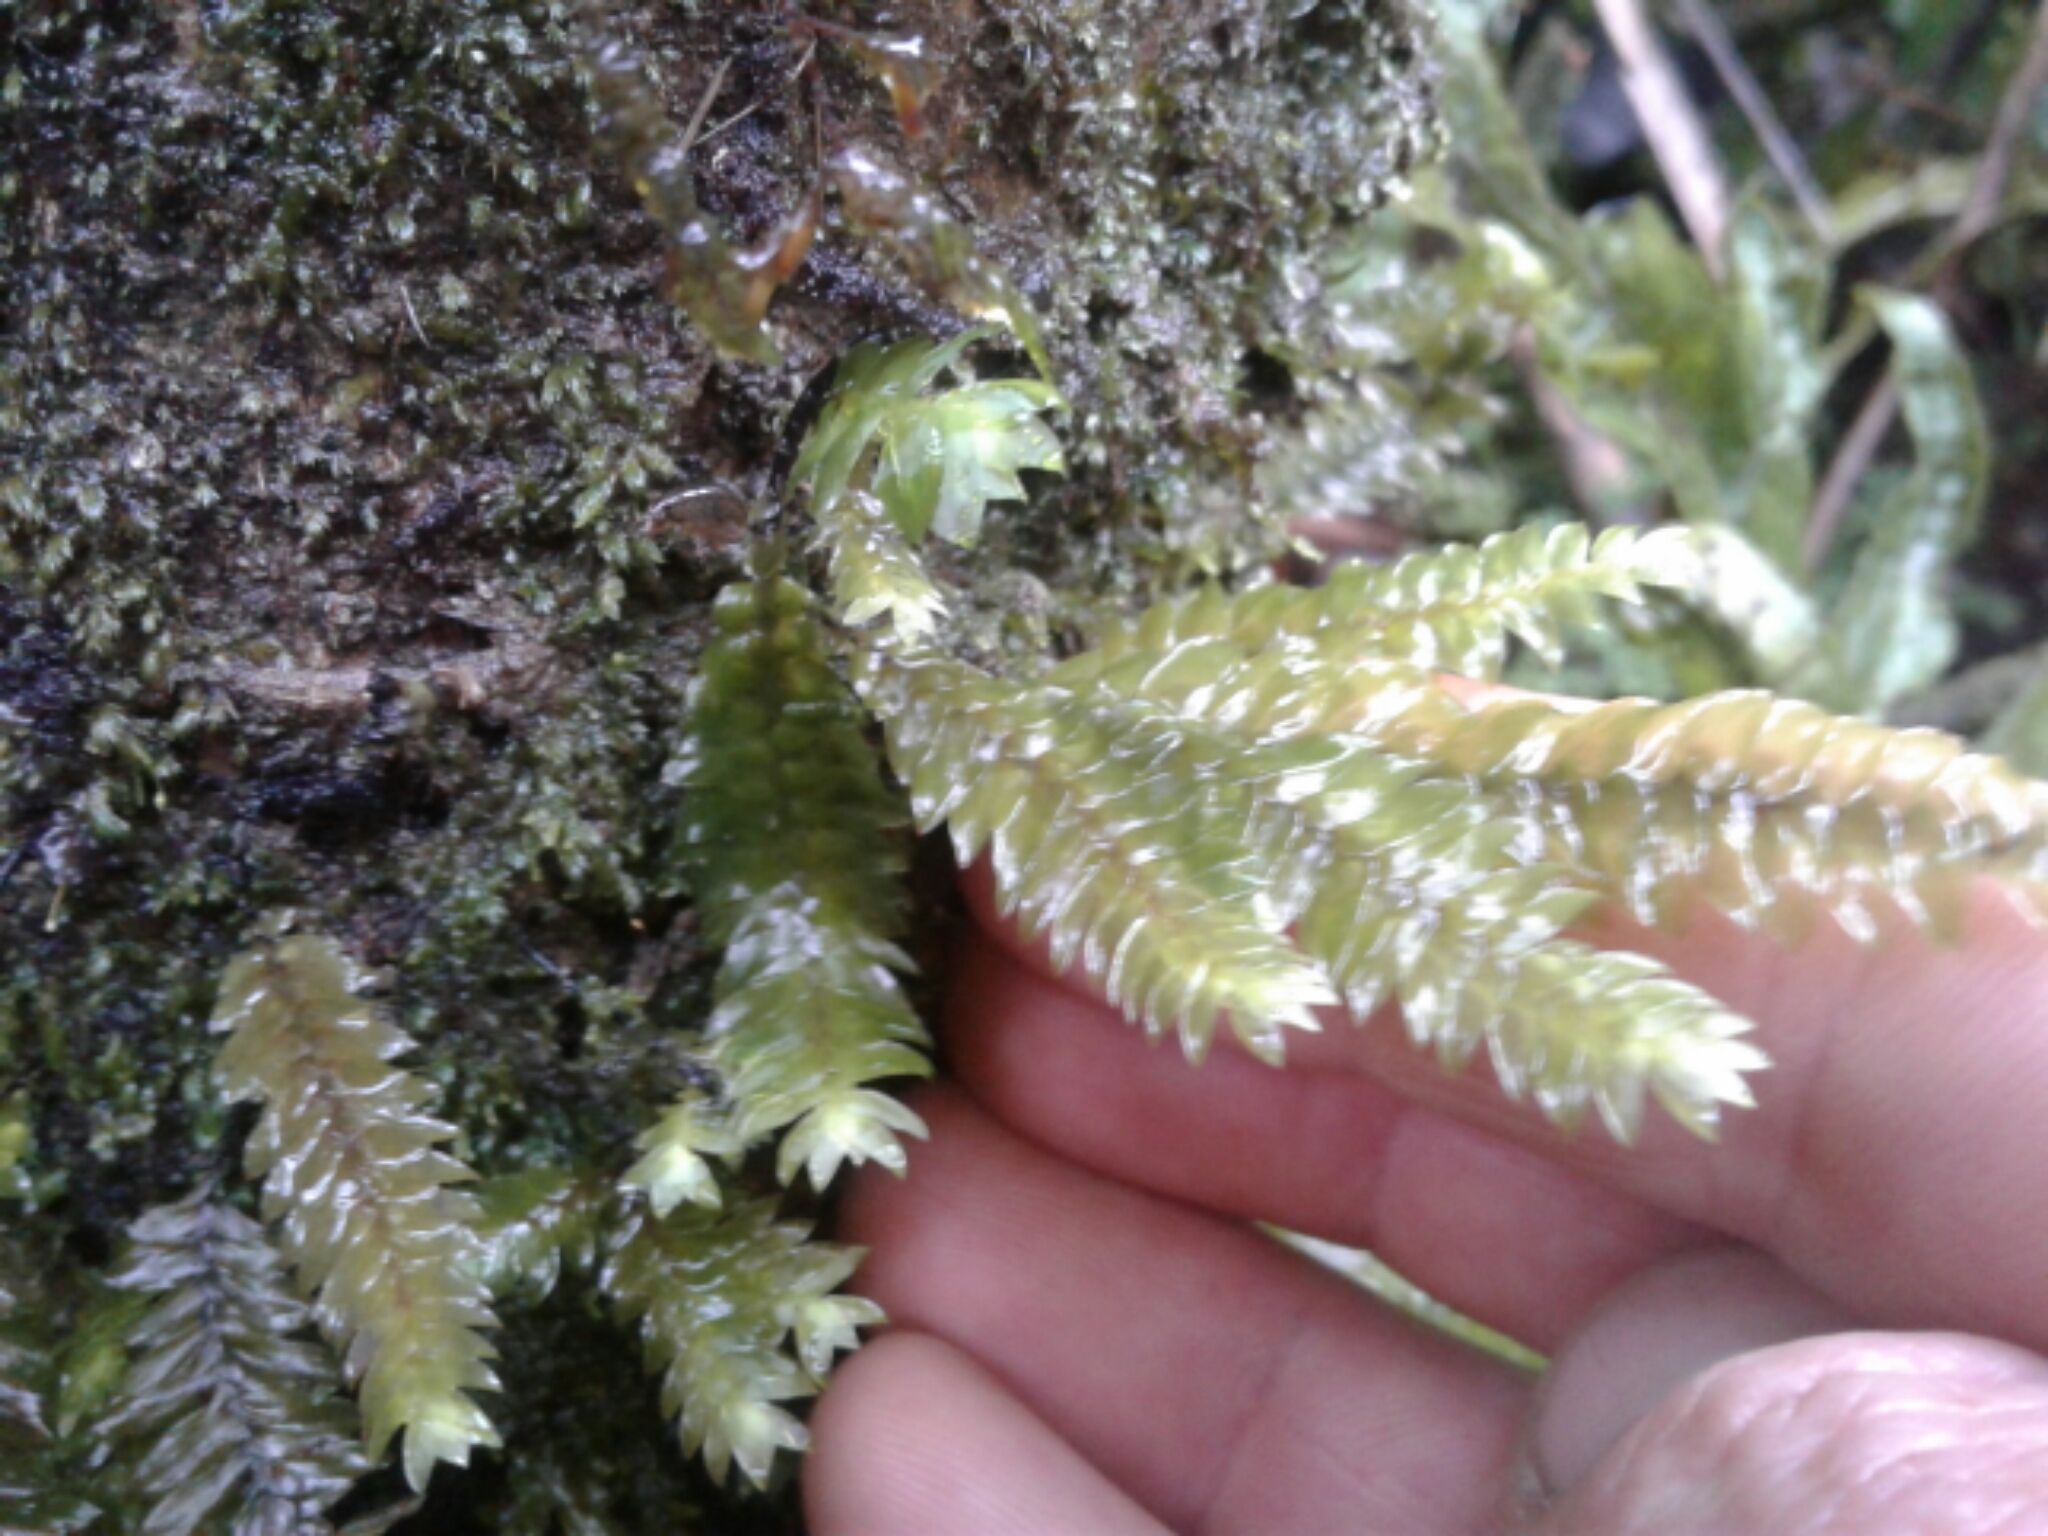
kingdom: Plantae
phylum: Bryophyta
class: Bryopsida
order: Hypopterygiales
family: Hypopterygiaceae
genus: Cyathophorum
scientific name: Cyathophorum bulbosum
